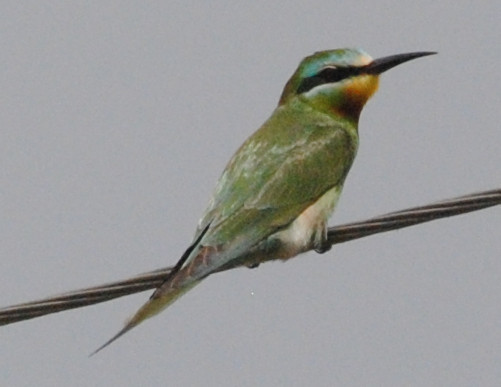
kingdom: Animalia
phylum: Chordata
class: Aves
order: Coraciiformes
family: Meropidae
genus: Merops
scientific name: Merops persicus
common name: Blue-cheeked bee-eater
